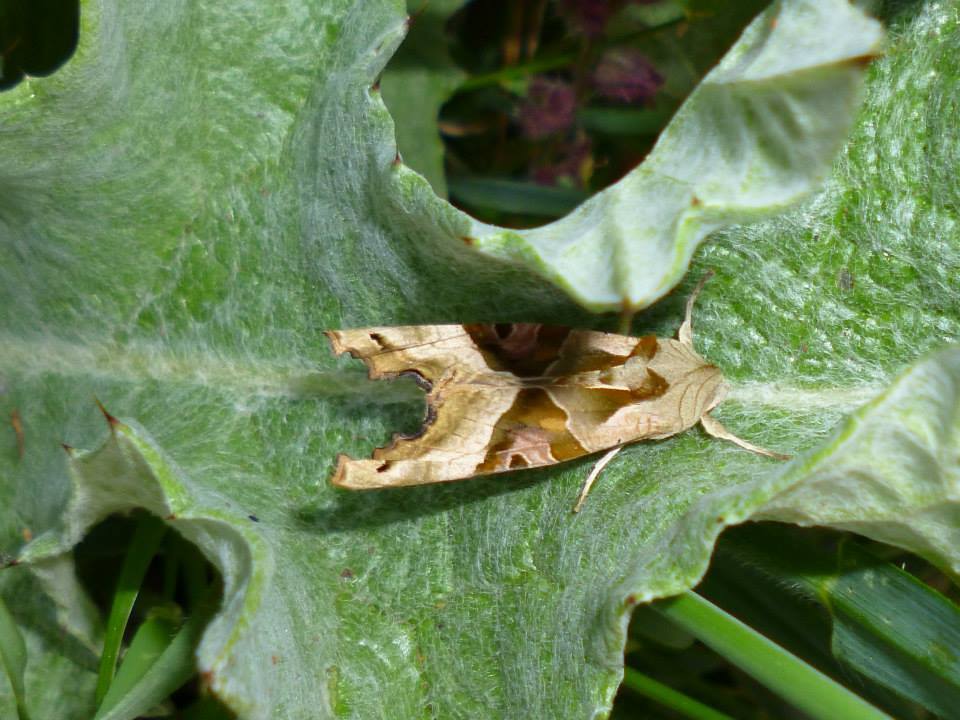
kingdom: Animalia
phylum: Arthropoda
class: Insecta
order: Lepidoptera
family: Noctuidae
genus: Phlogophora
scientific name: Phlogophora meticulosa
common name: Angle shades
